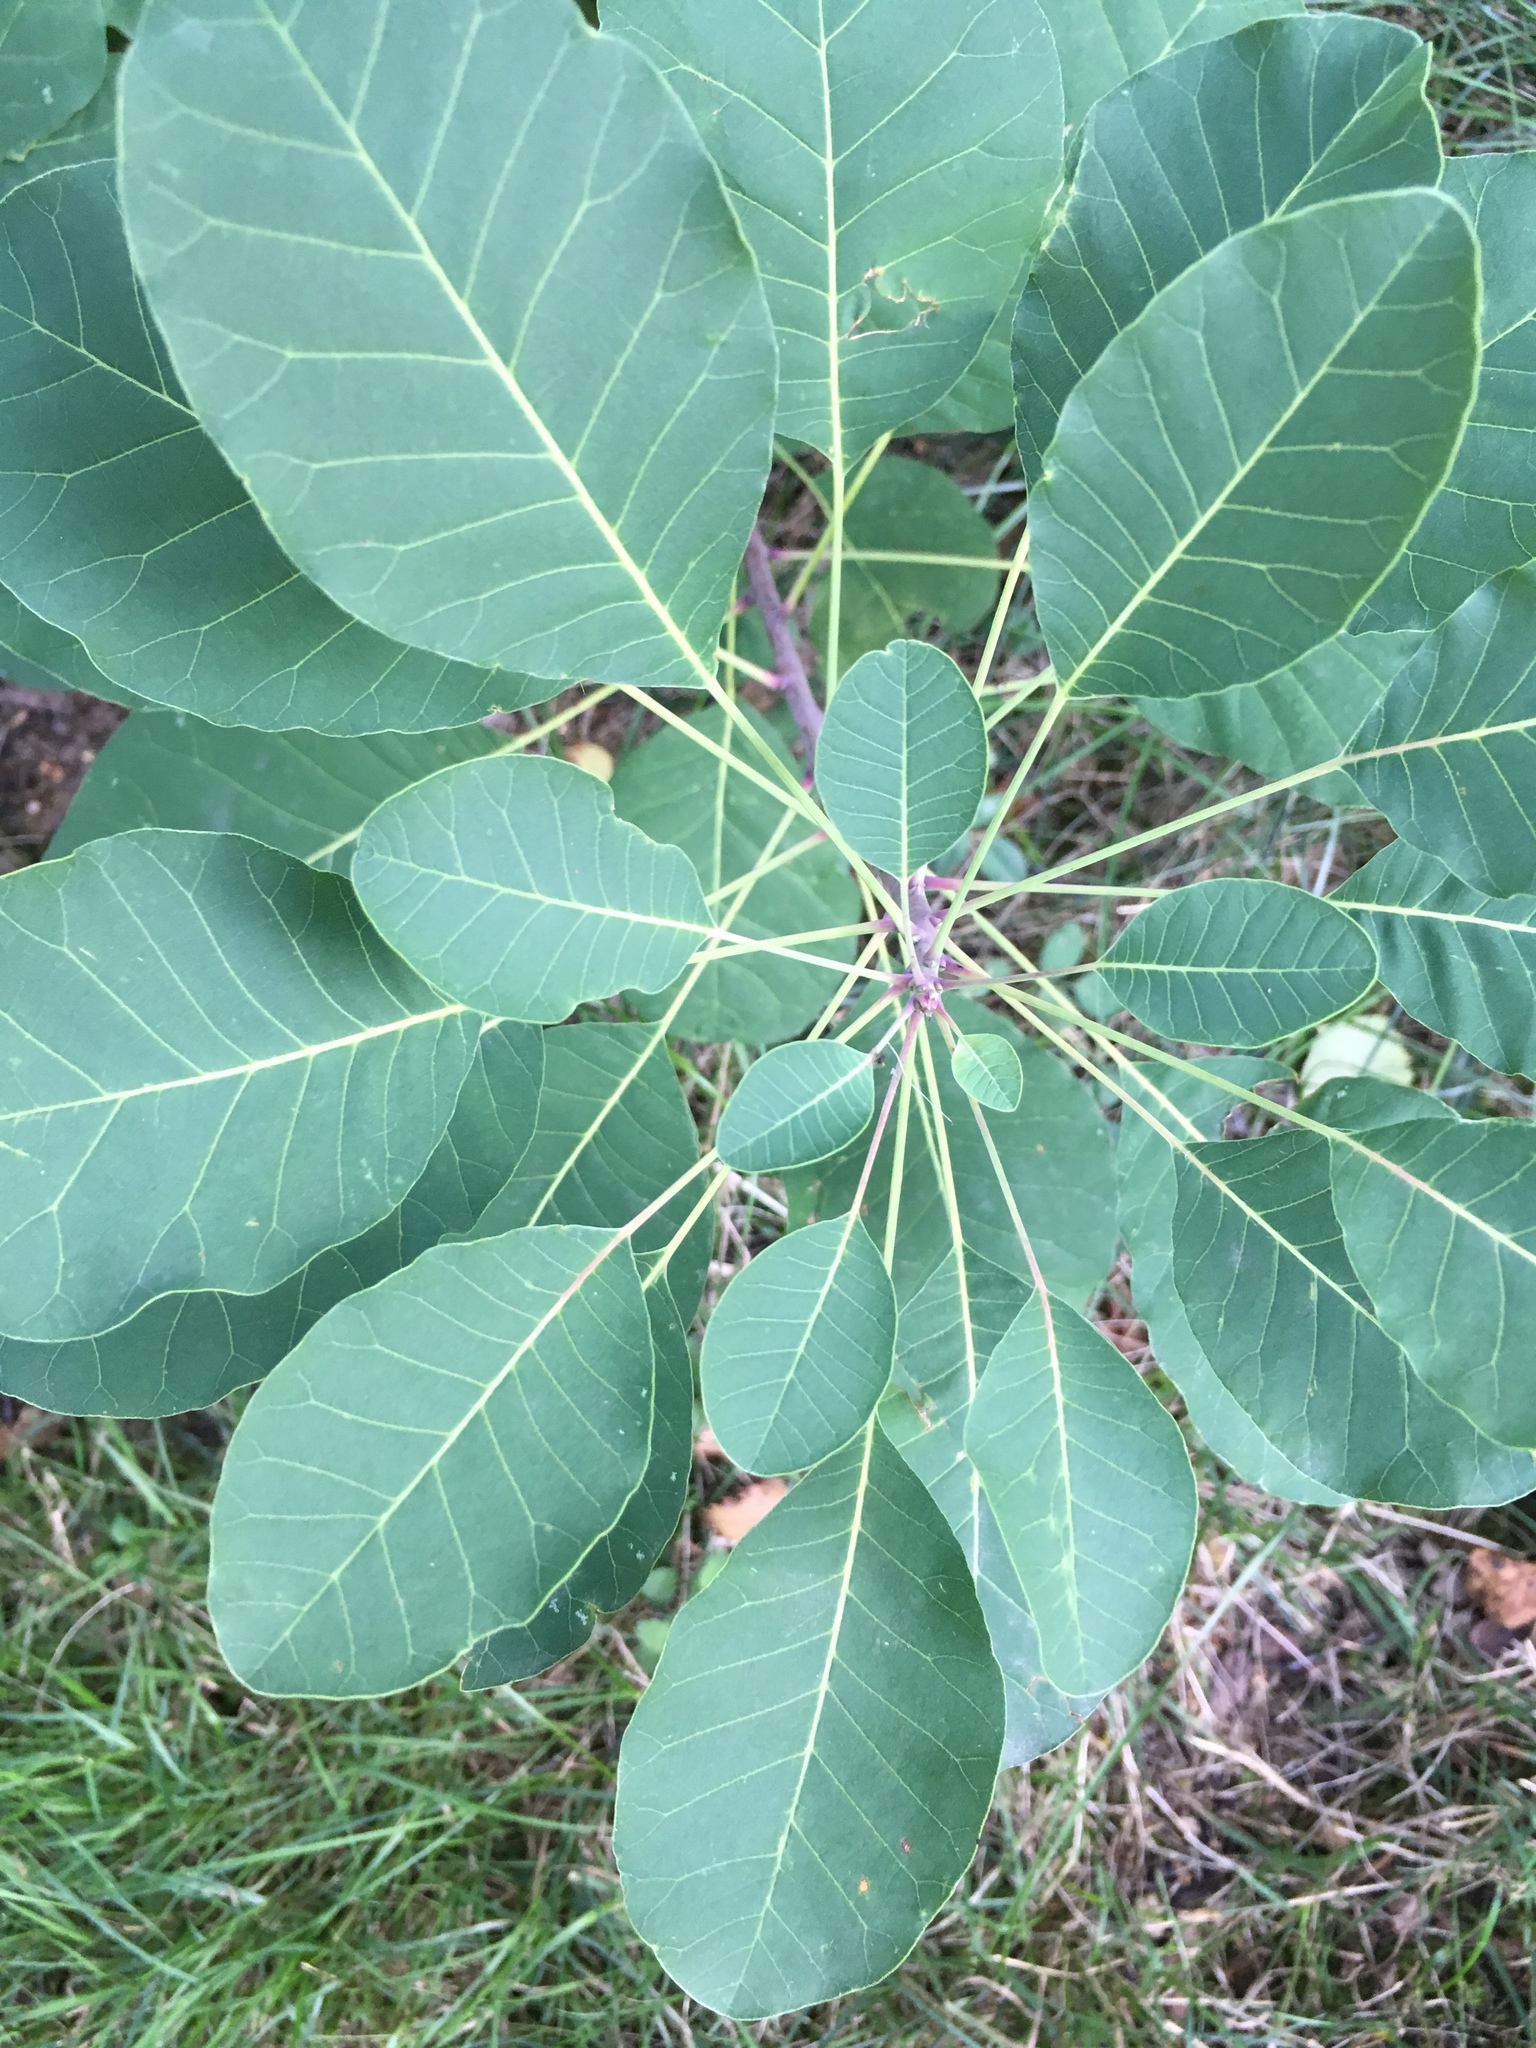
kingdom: Plantae
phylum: Tracheophyta
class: Magnoliopsida
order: Sapindales
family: Anacardiaceae
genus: Cotinus
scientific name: Cotinus coggygria
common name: Smoke-tree
